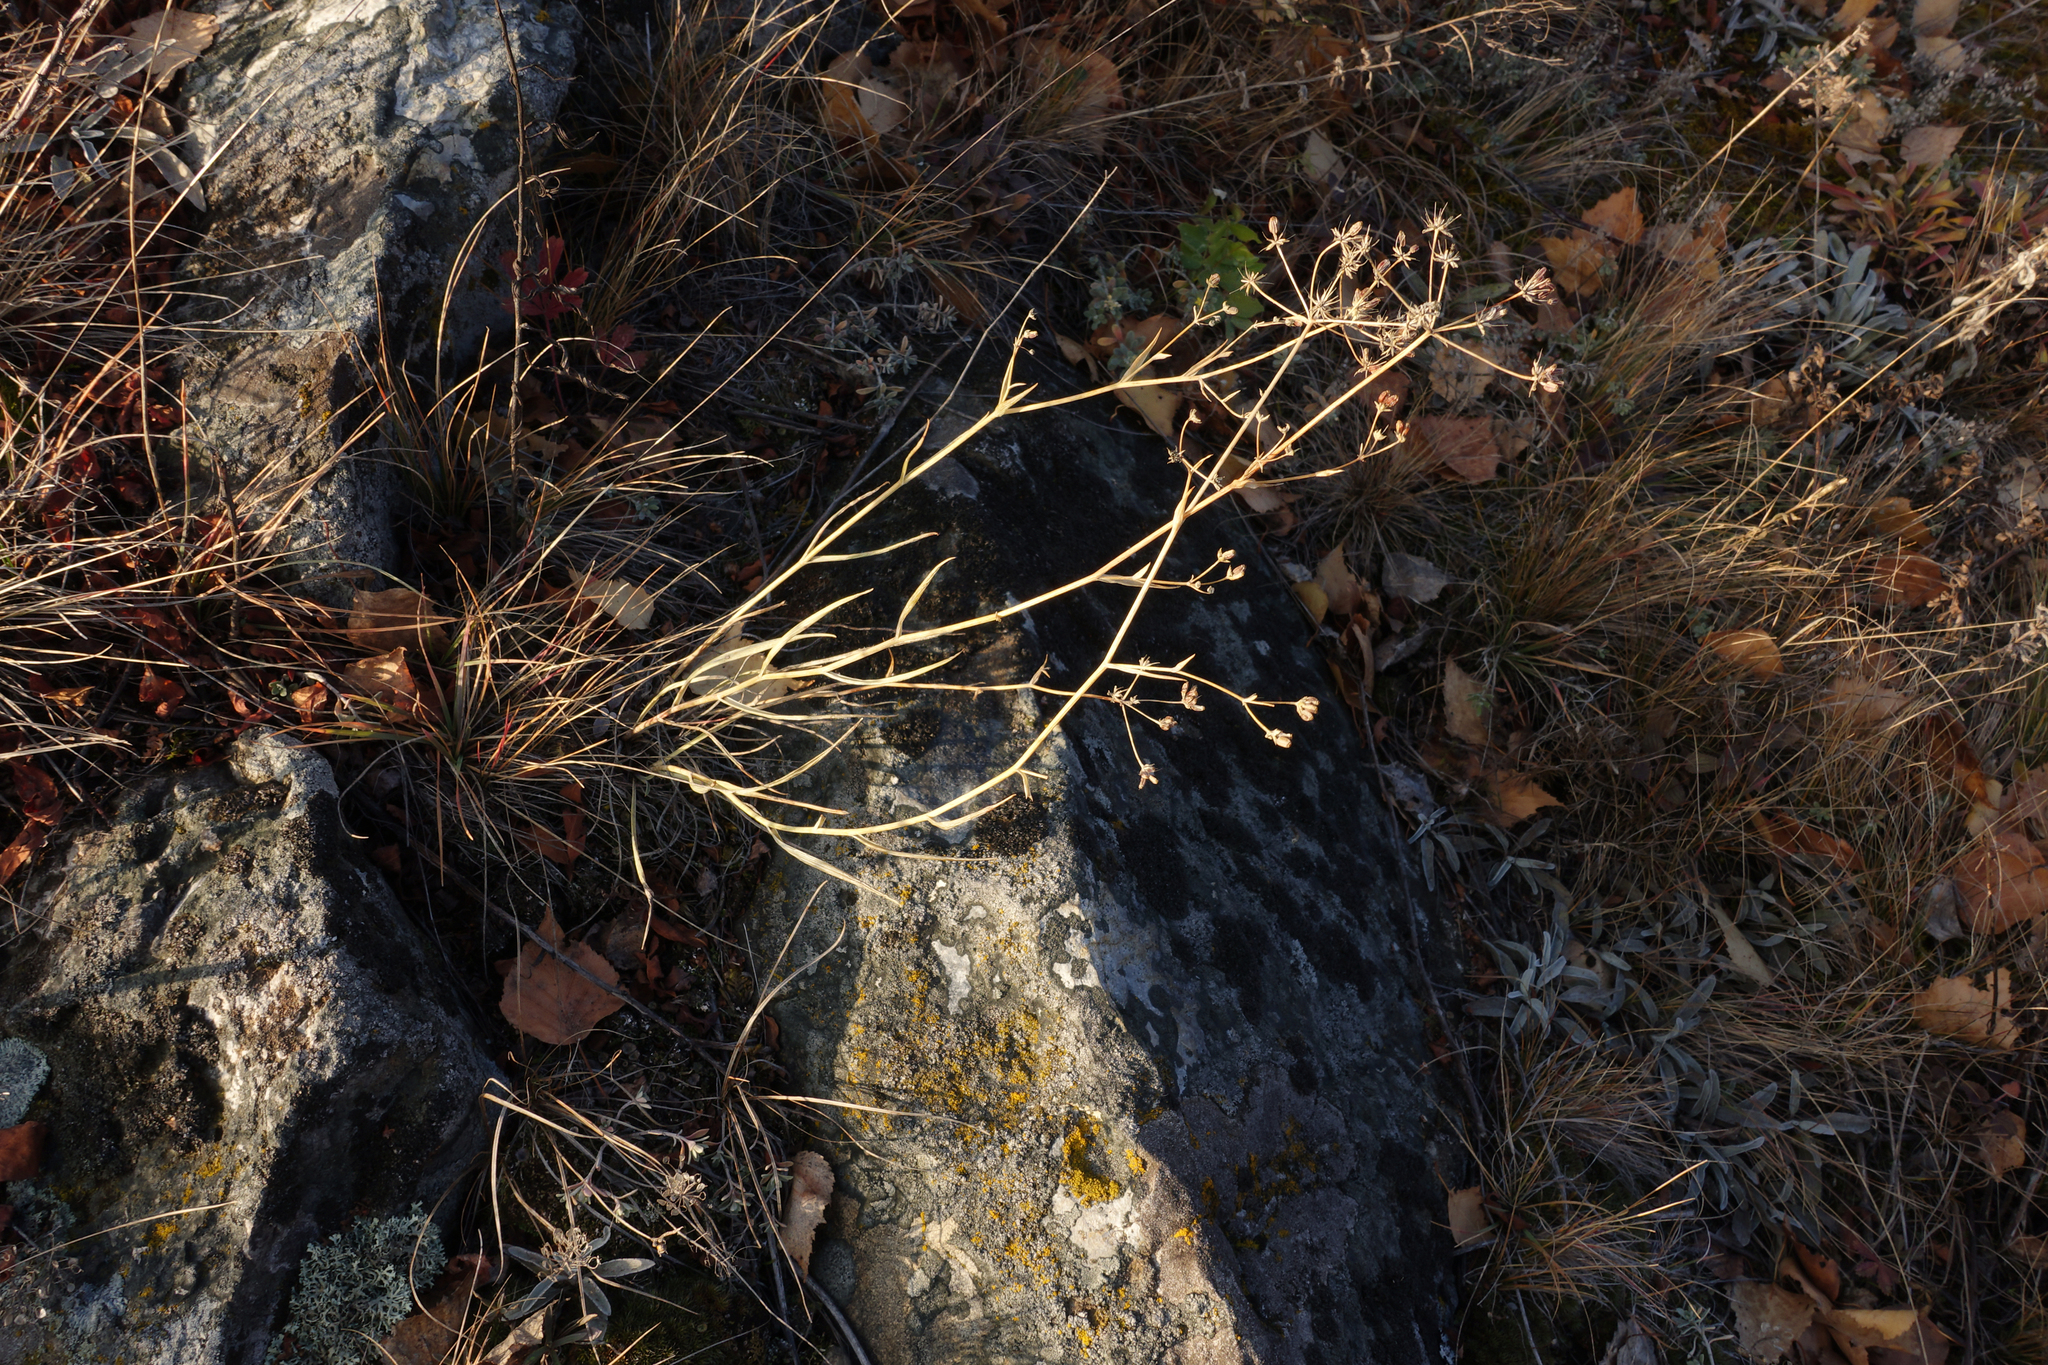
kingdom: Plantae
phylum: Tracheophyta
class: Magnoliopsida
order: Apiales
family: Apiaceae
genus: Bupleurum
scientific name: Bupleurum bicaule
